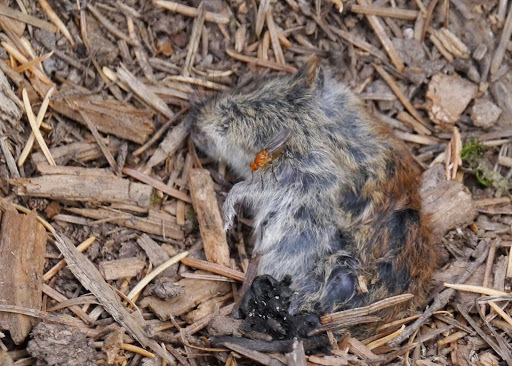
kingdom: Animalia
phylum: Chordata
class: Mammalia
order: Rodentia
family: Cricetidae
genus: Myodes
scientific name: Myodes rutilus
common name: Northern red-backed vole
